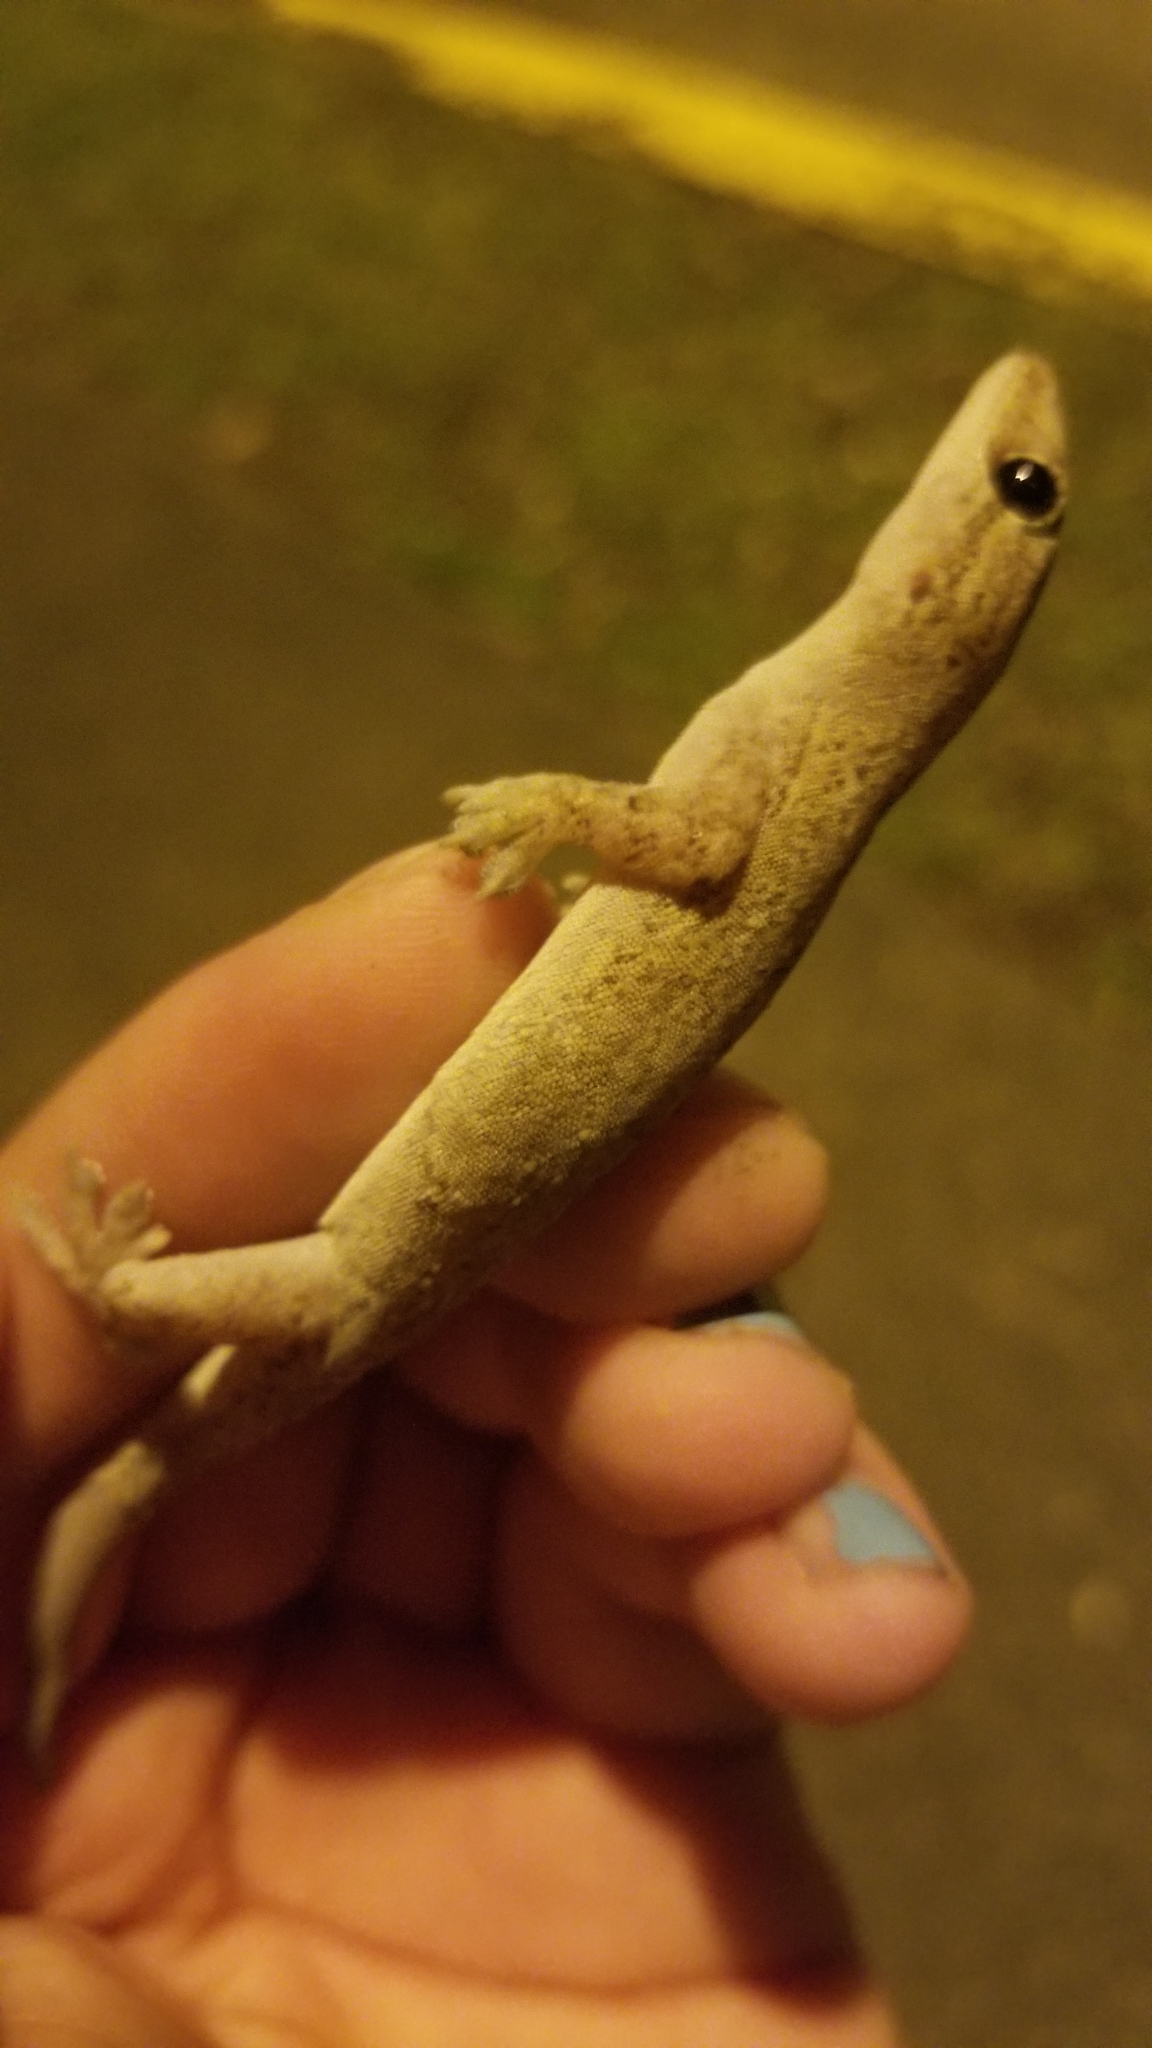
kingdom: Animalia
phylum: Chordata
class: Squamata
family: Gekkonidae
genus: Hemidactylus
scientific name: Hemidactylus frenatus
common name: Common house gecko
